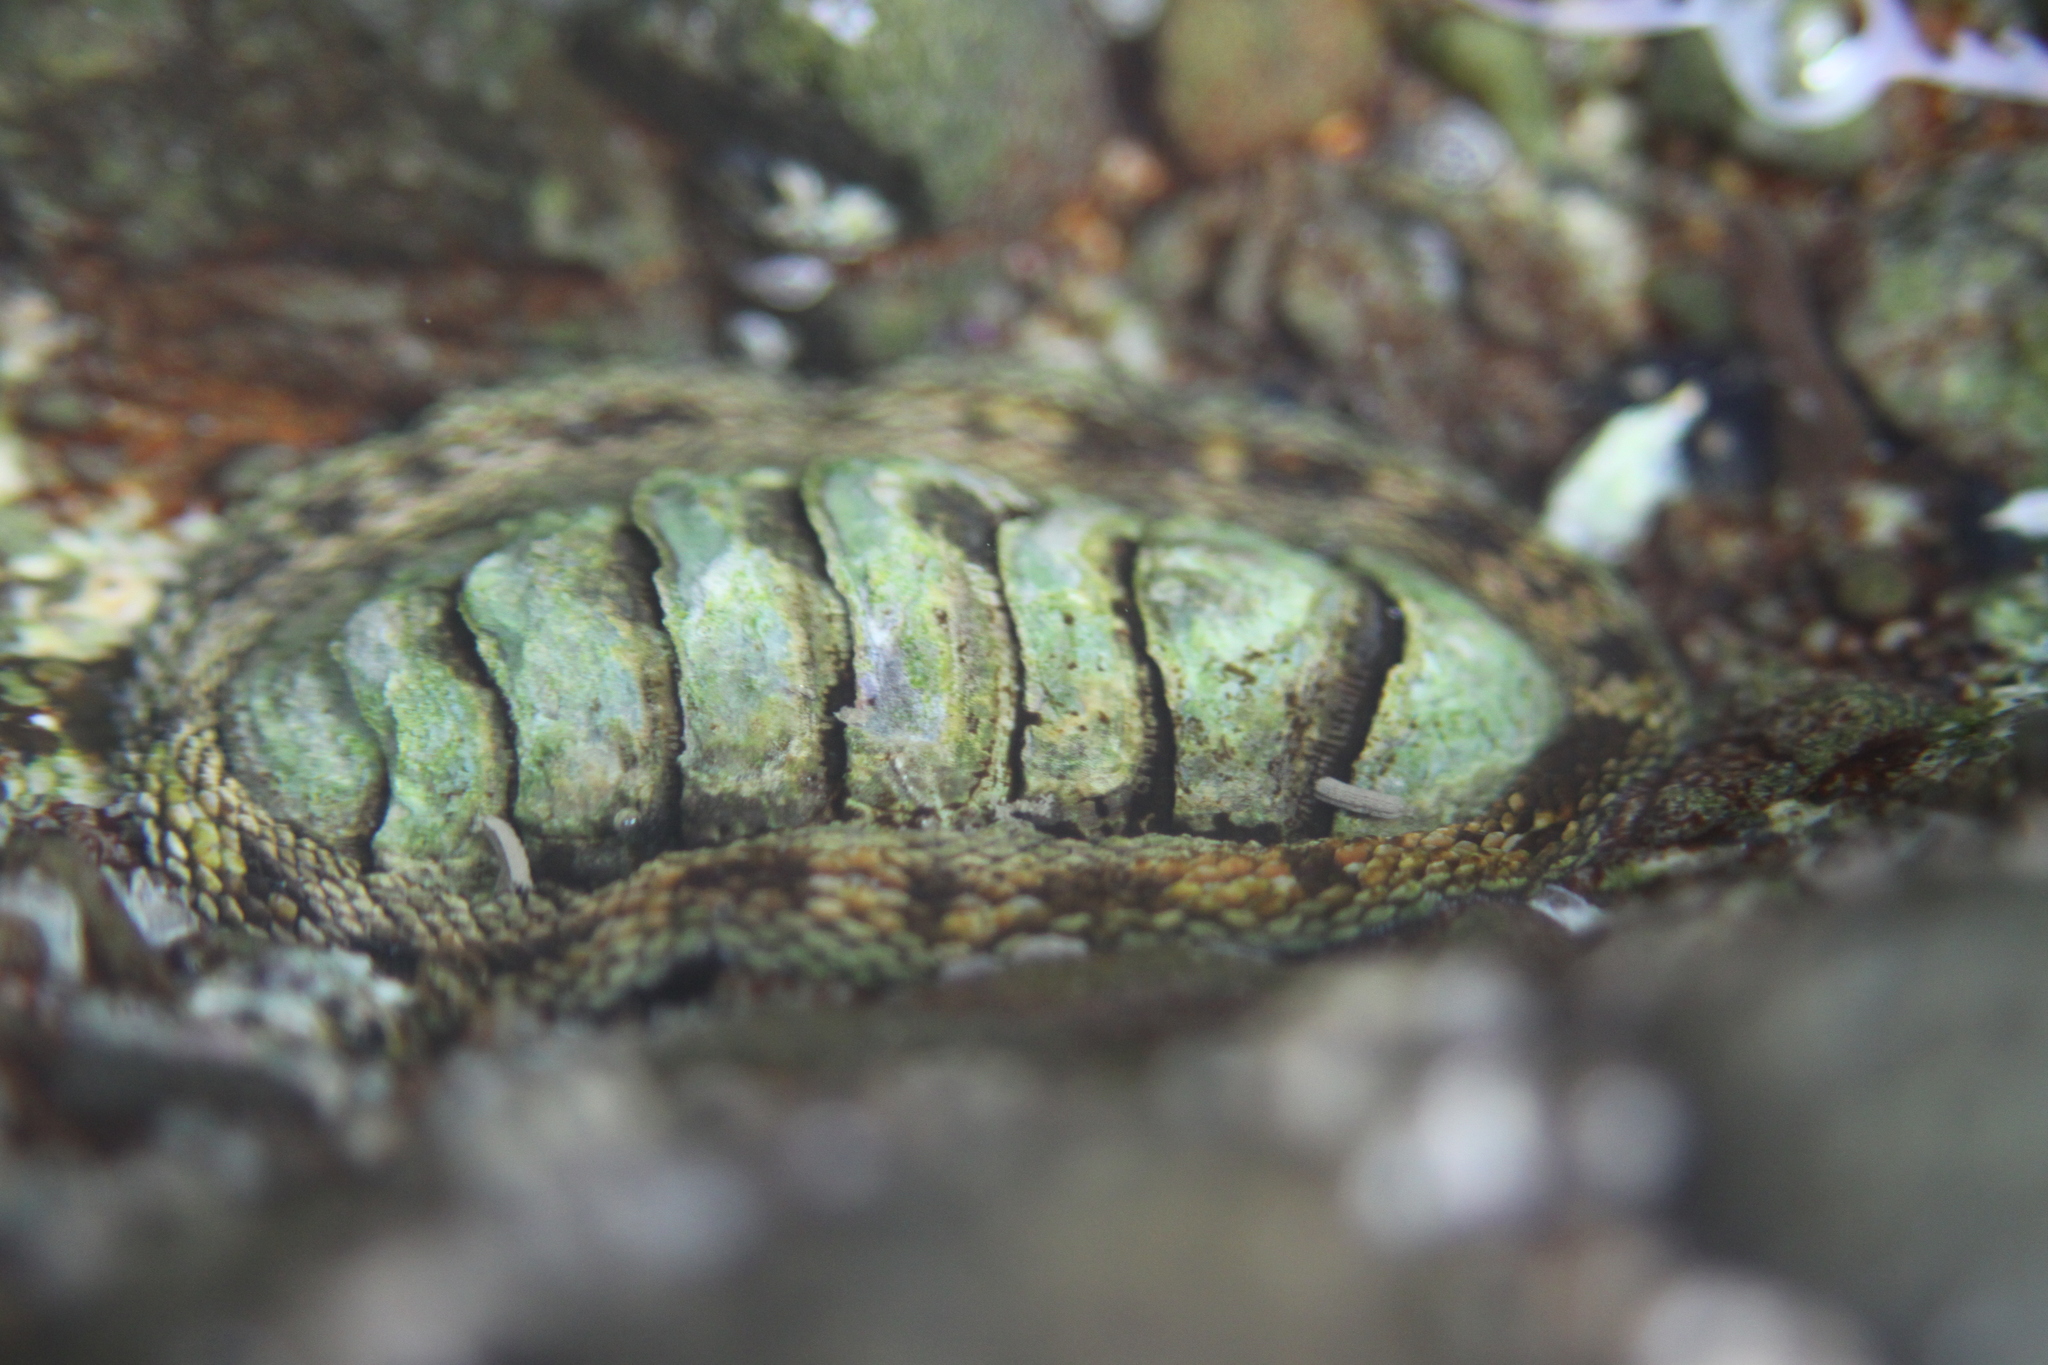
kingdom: Animalia
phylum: Mollusca
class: Polyplacophora
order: Chitonida
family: Chitonidae
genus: Sypharochiton
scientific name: Sypharochiton pelliserpentis
